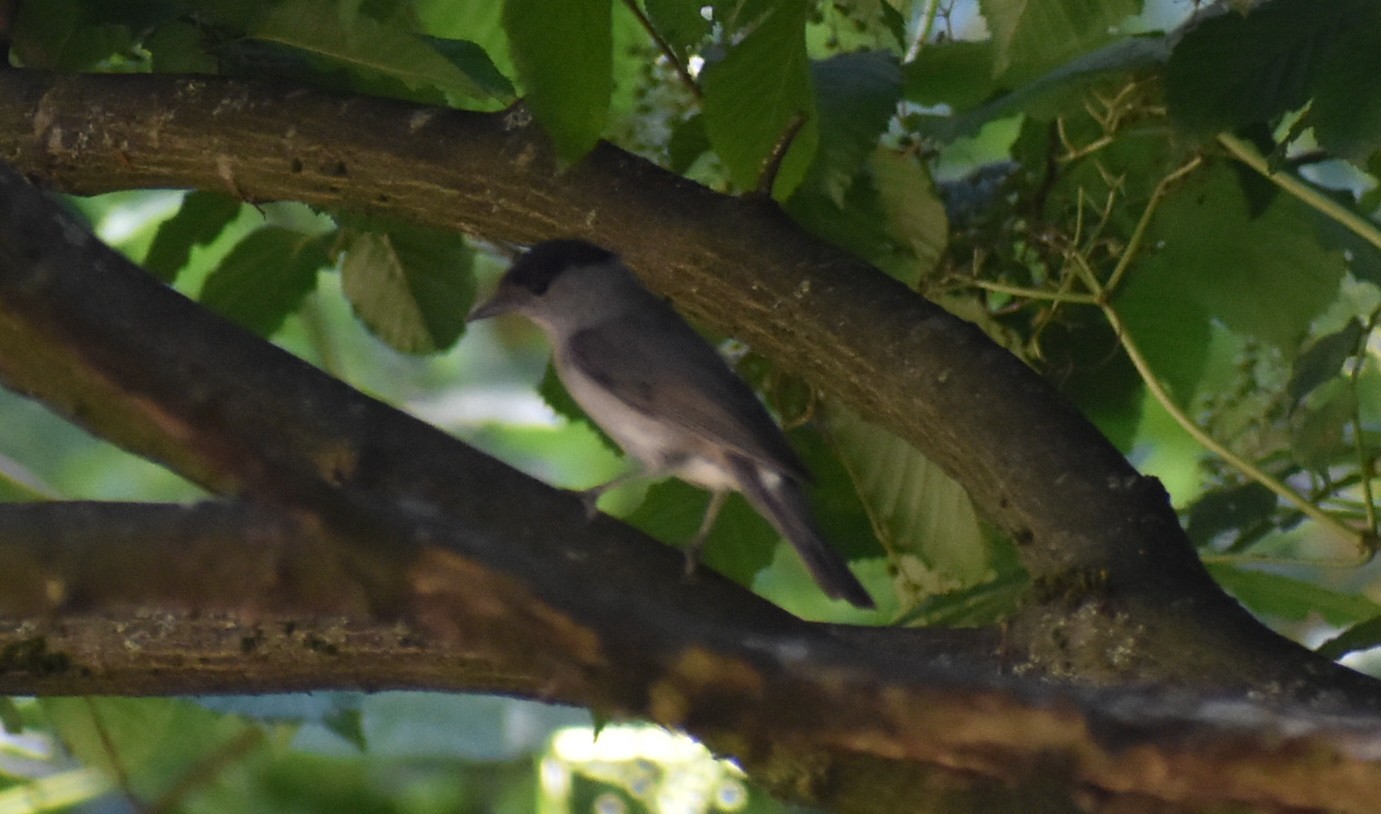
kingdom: Animalia
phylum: Chordata
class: Aves
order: Passeriformes
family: Sylviidae
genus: Sylvia
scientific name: Sylvia atricapilla
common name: Eurasian blackcap
